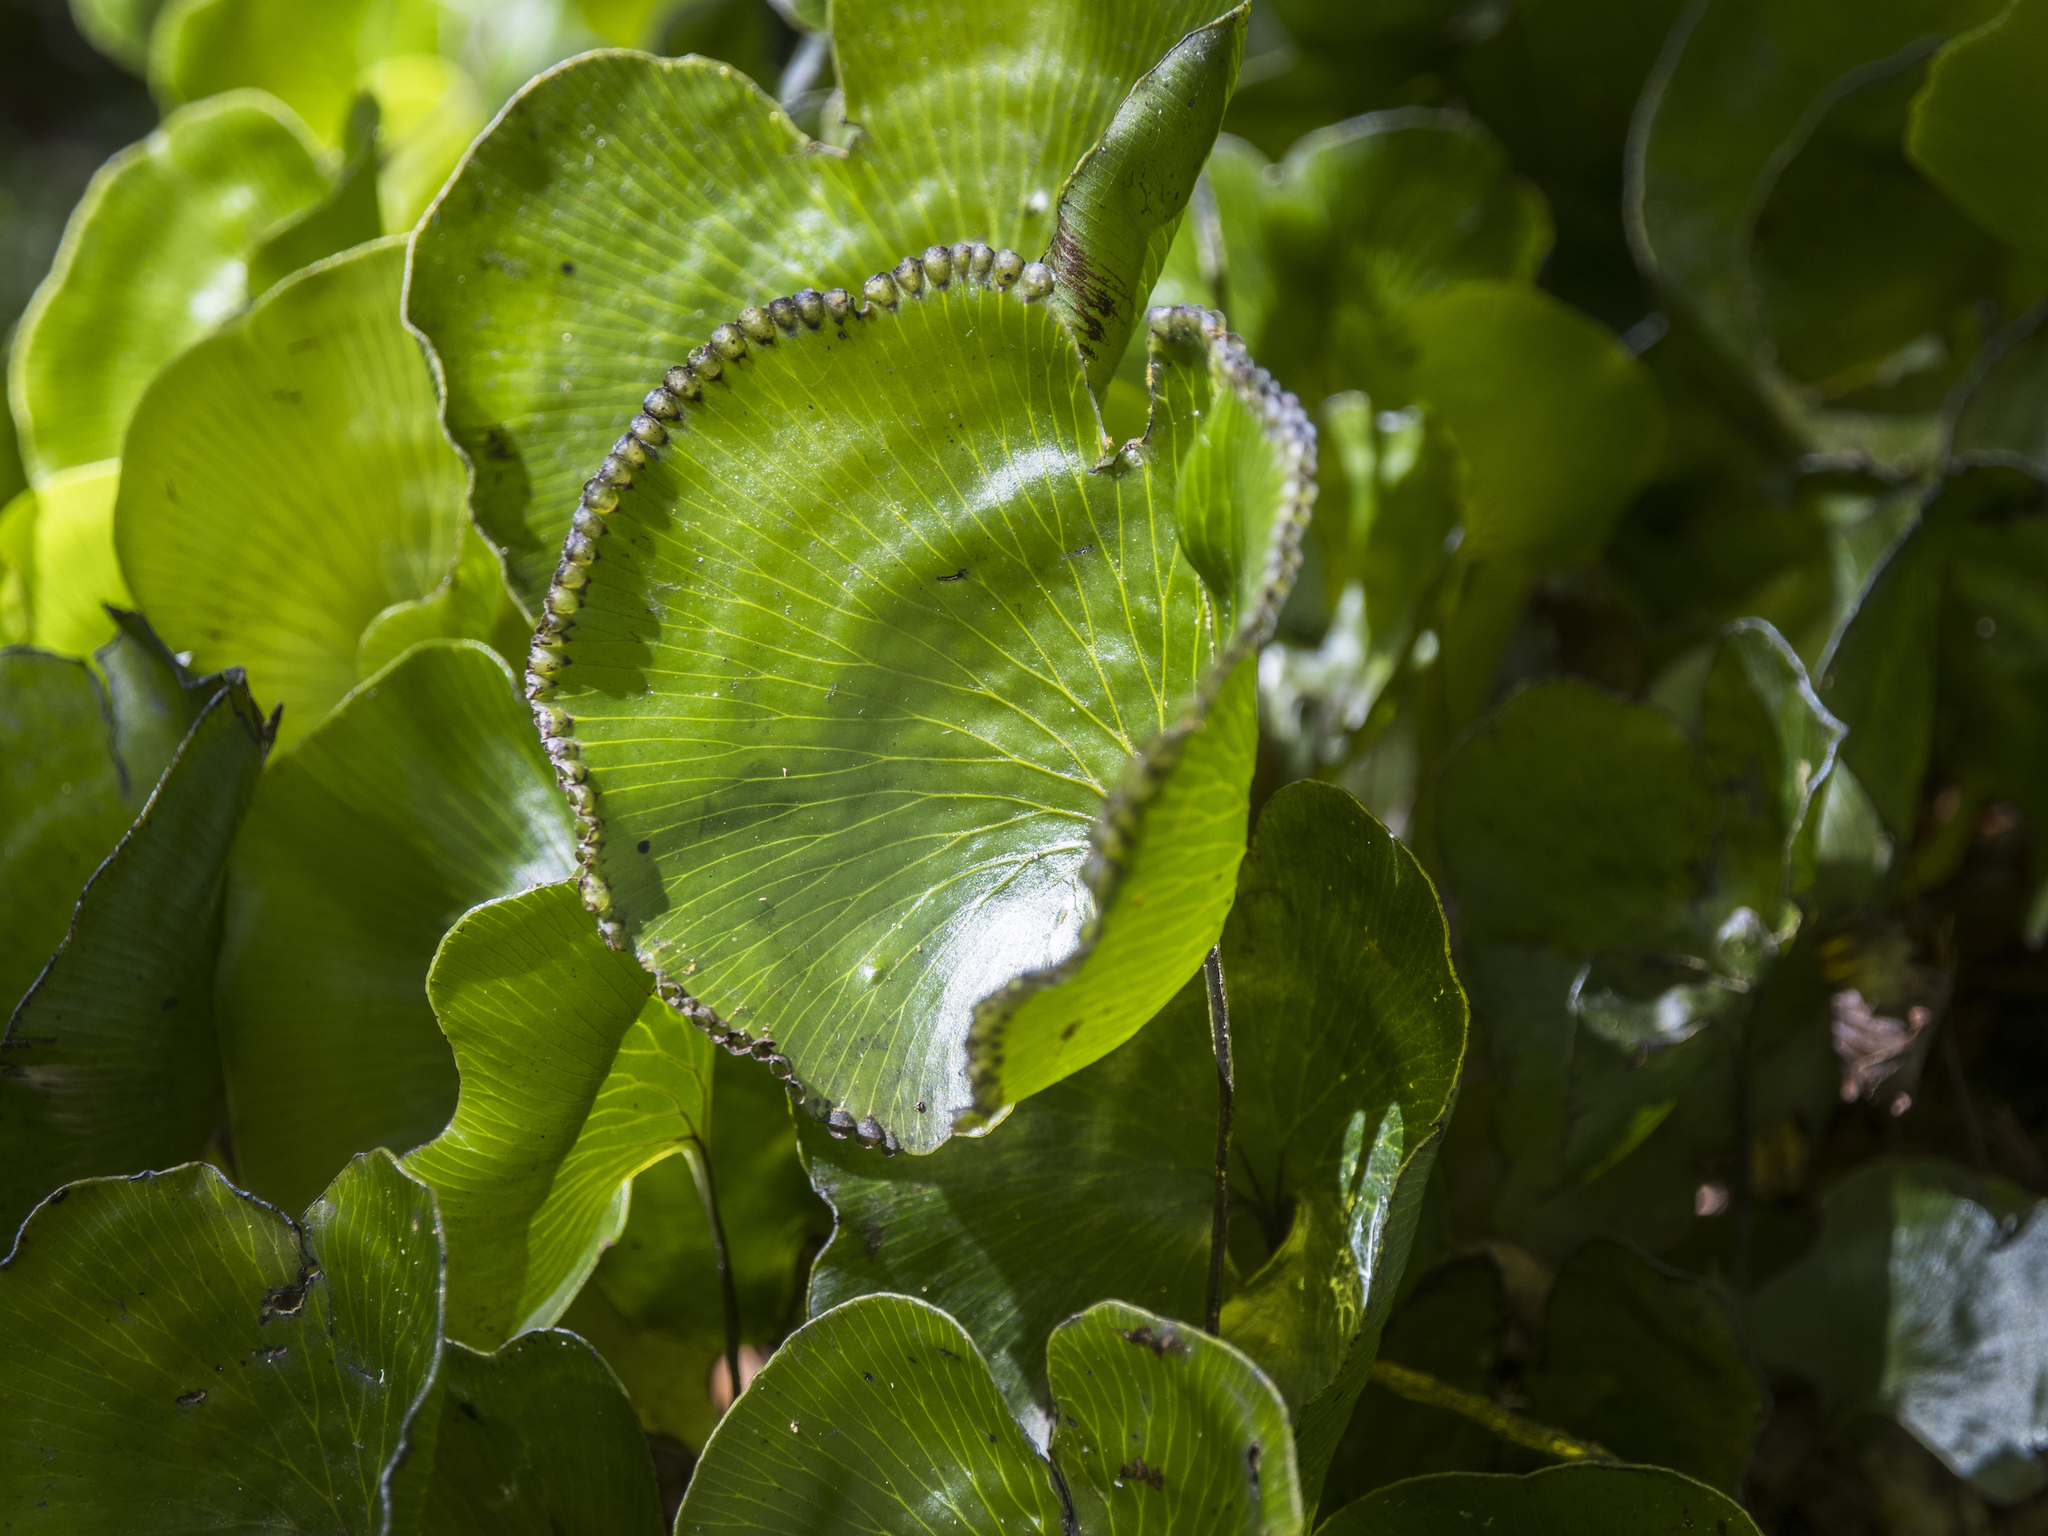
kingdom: Plantae
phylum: Tracheophyta
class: Polypodiopsida
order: Hymenophyllales
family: Hymenophyllaceae
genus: Hymenophyllum
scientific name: Hymenophyllum nephrophyllum
